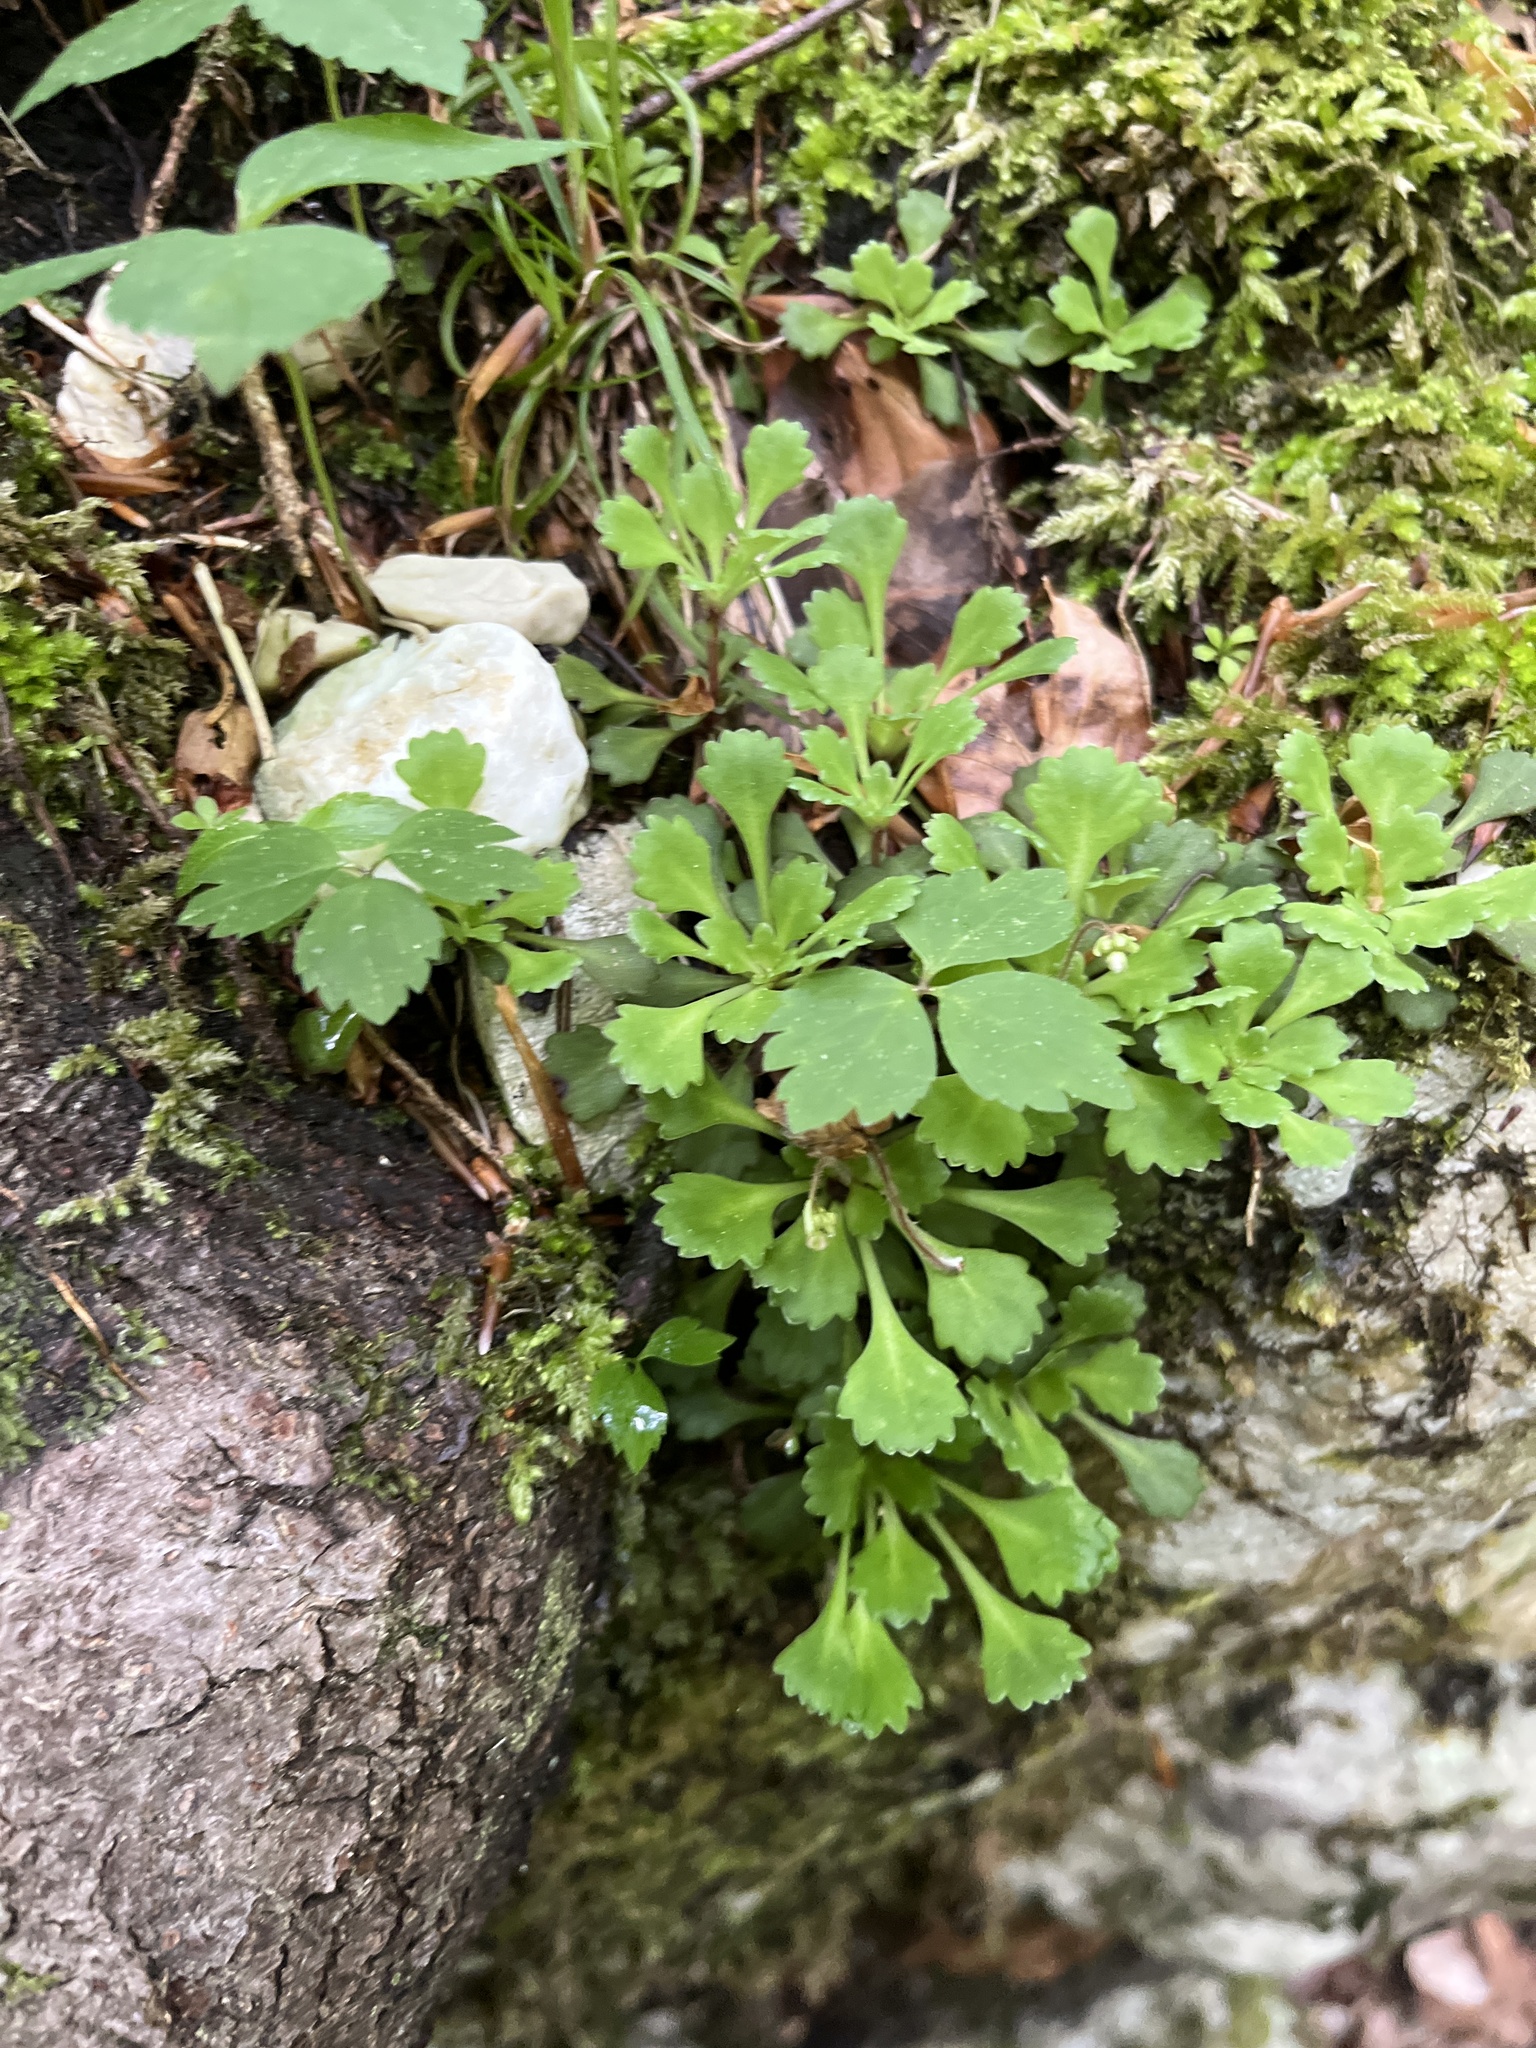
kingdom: Plantae
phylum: Tracheophyta
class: Magnoliopsida
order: Saxifragales
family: Saxifragaceae
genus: Saxifraga
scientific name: Saxifraga cuneifolia
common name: Lesser londonpride
